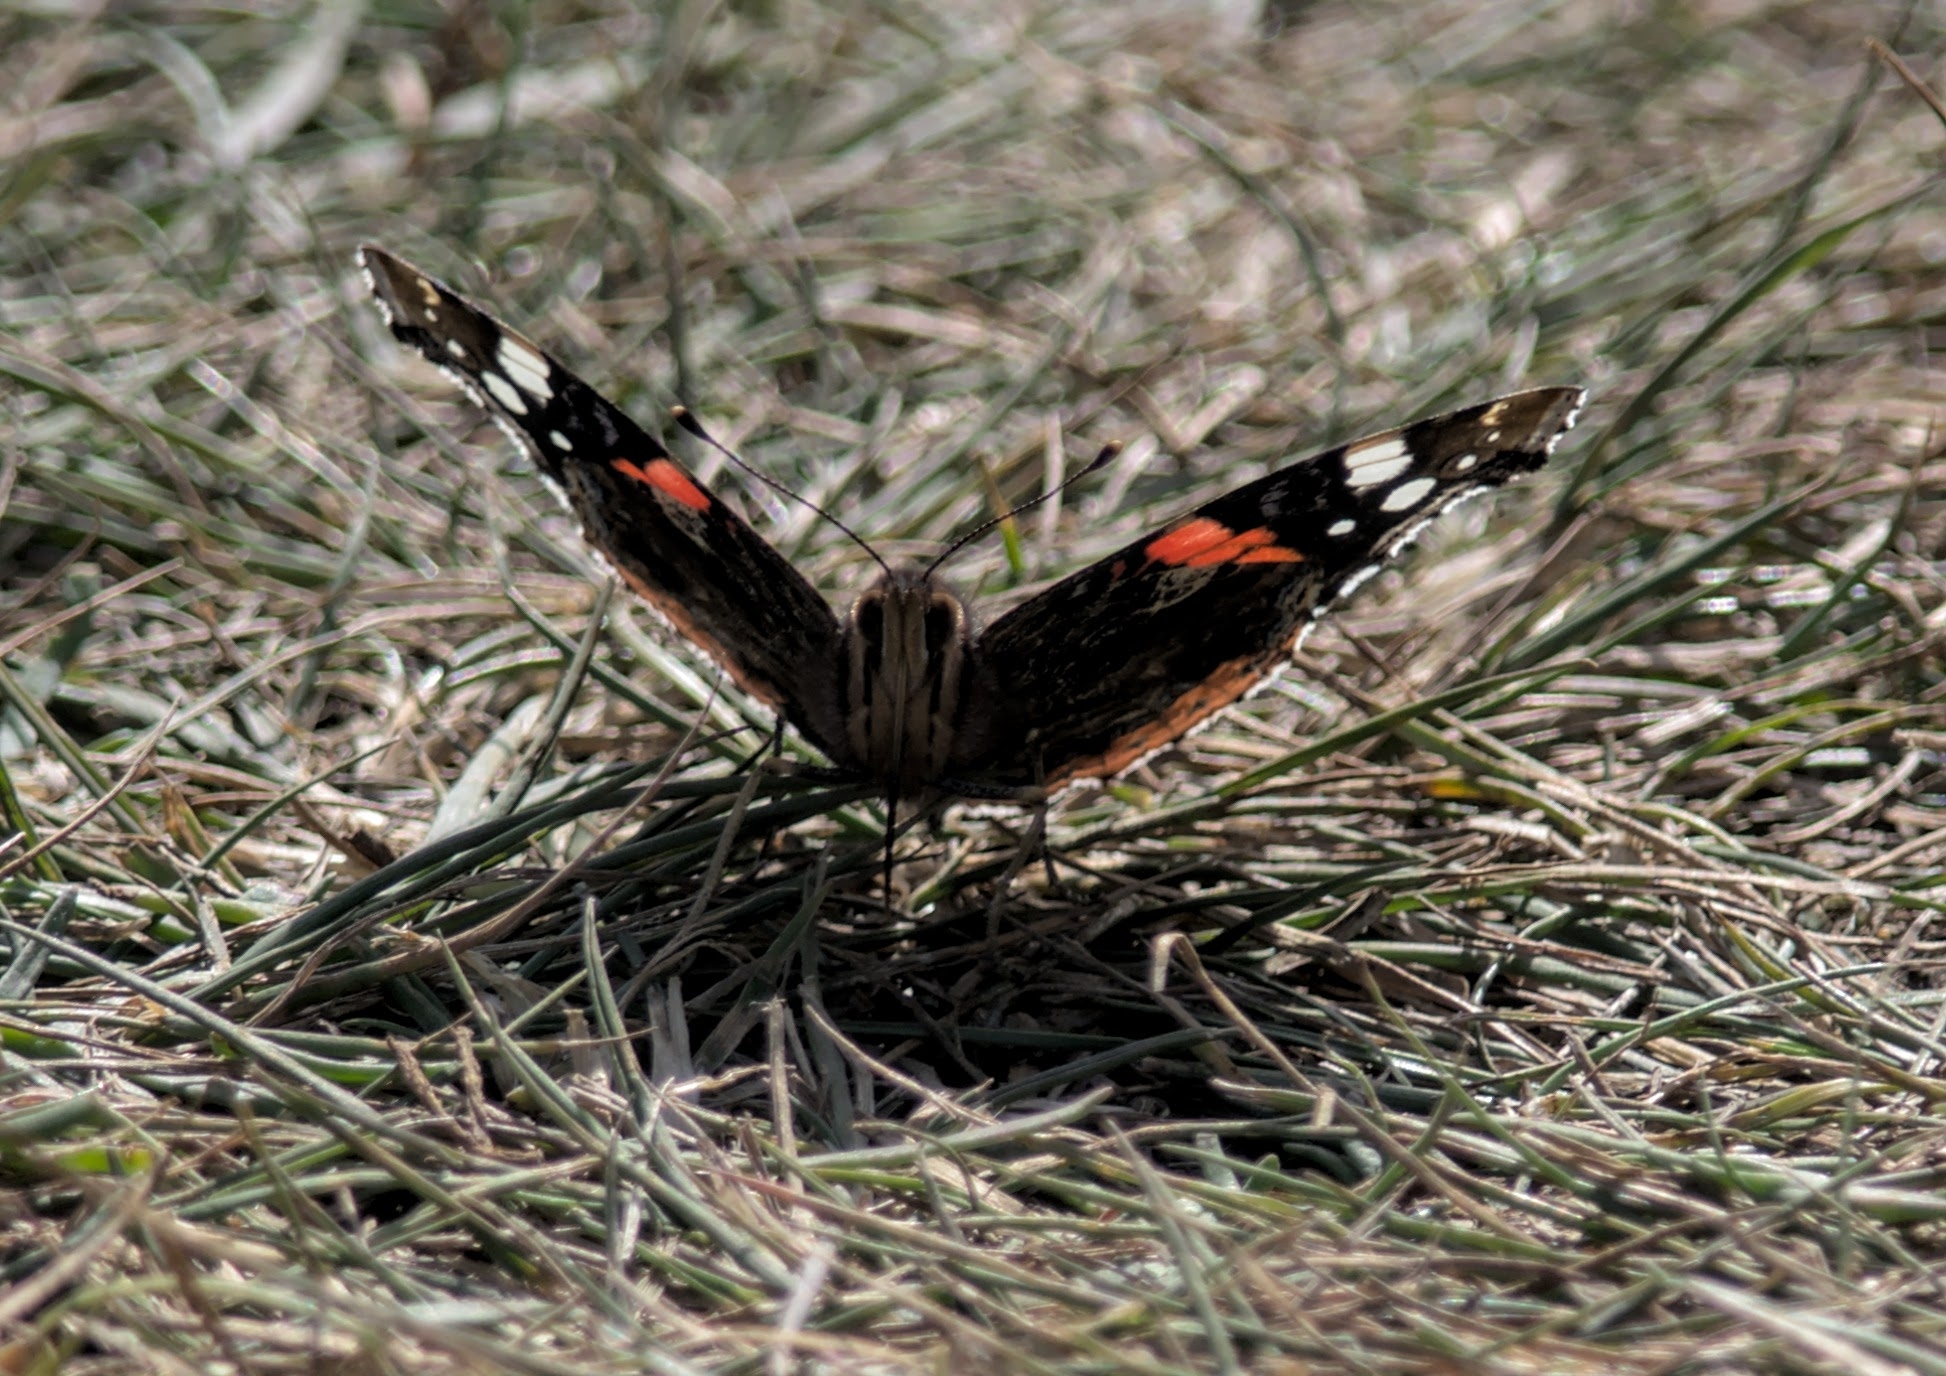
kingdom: Animalia
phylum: Arthropoda
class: Insecta
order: Lepidoptera
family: Nymphalidae
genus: Vanessa
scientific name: Vanessa atalanta
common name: Red admiral
